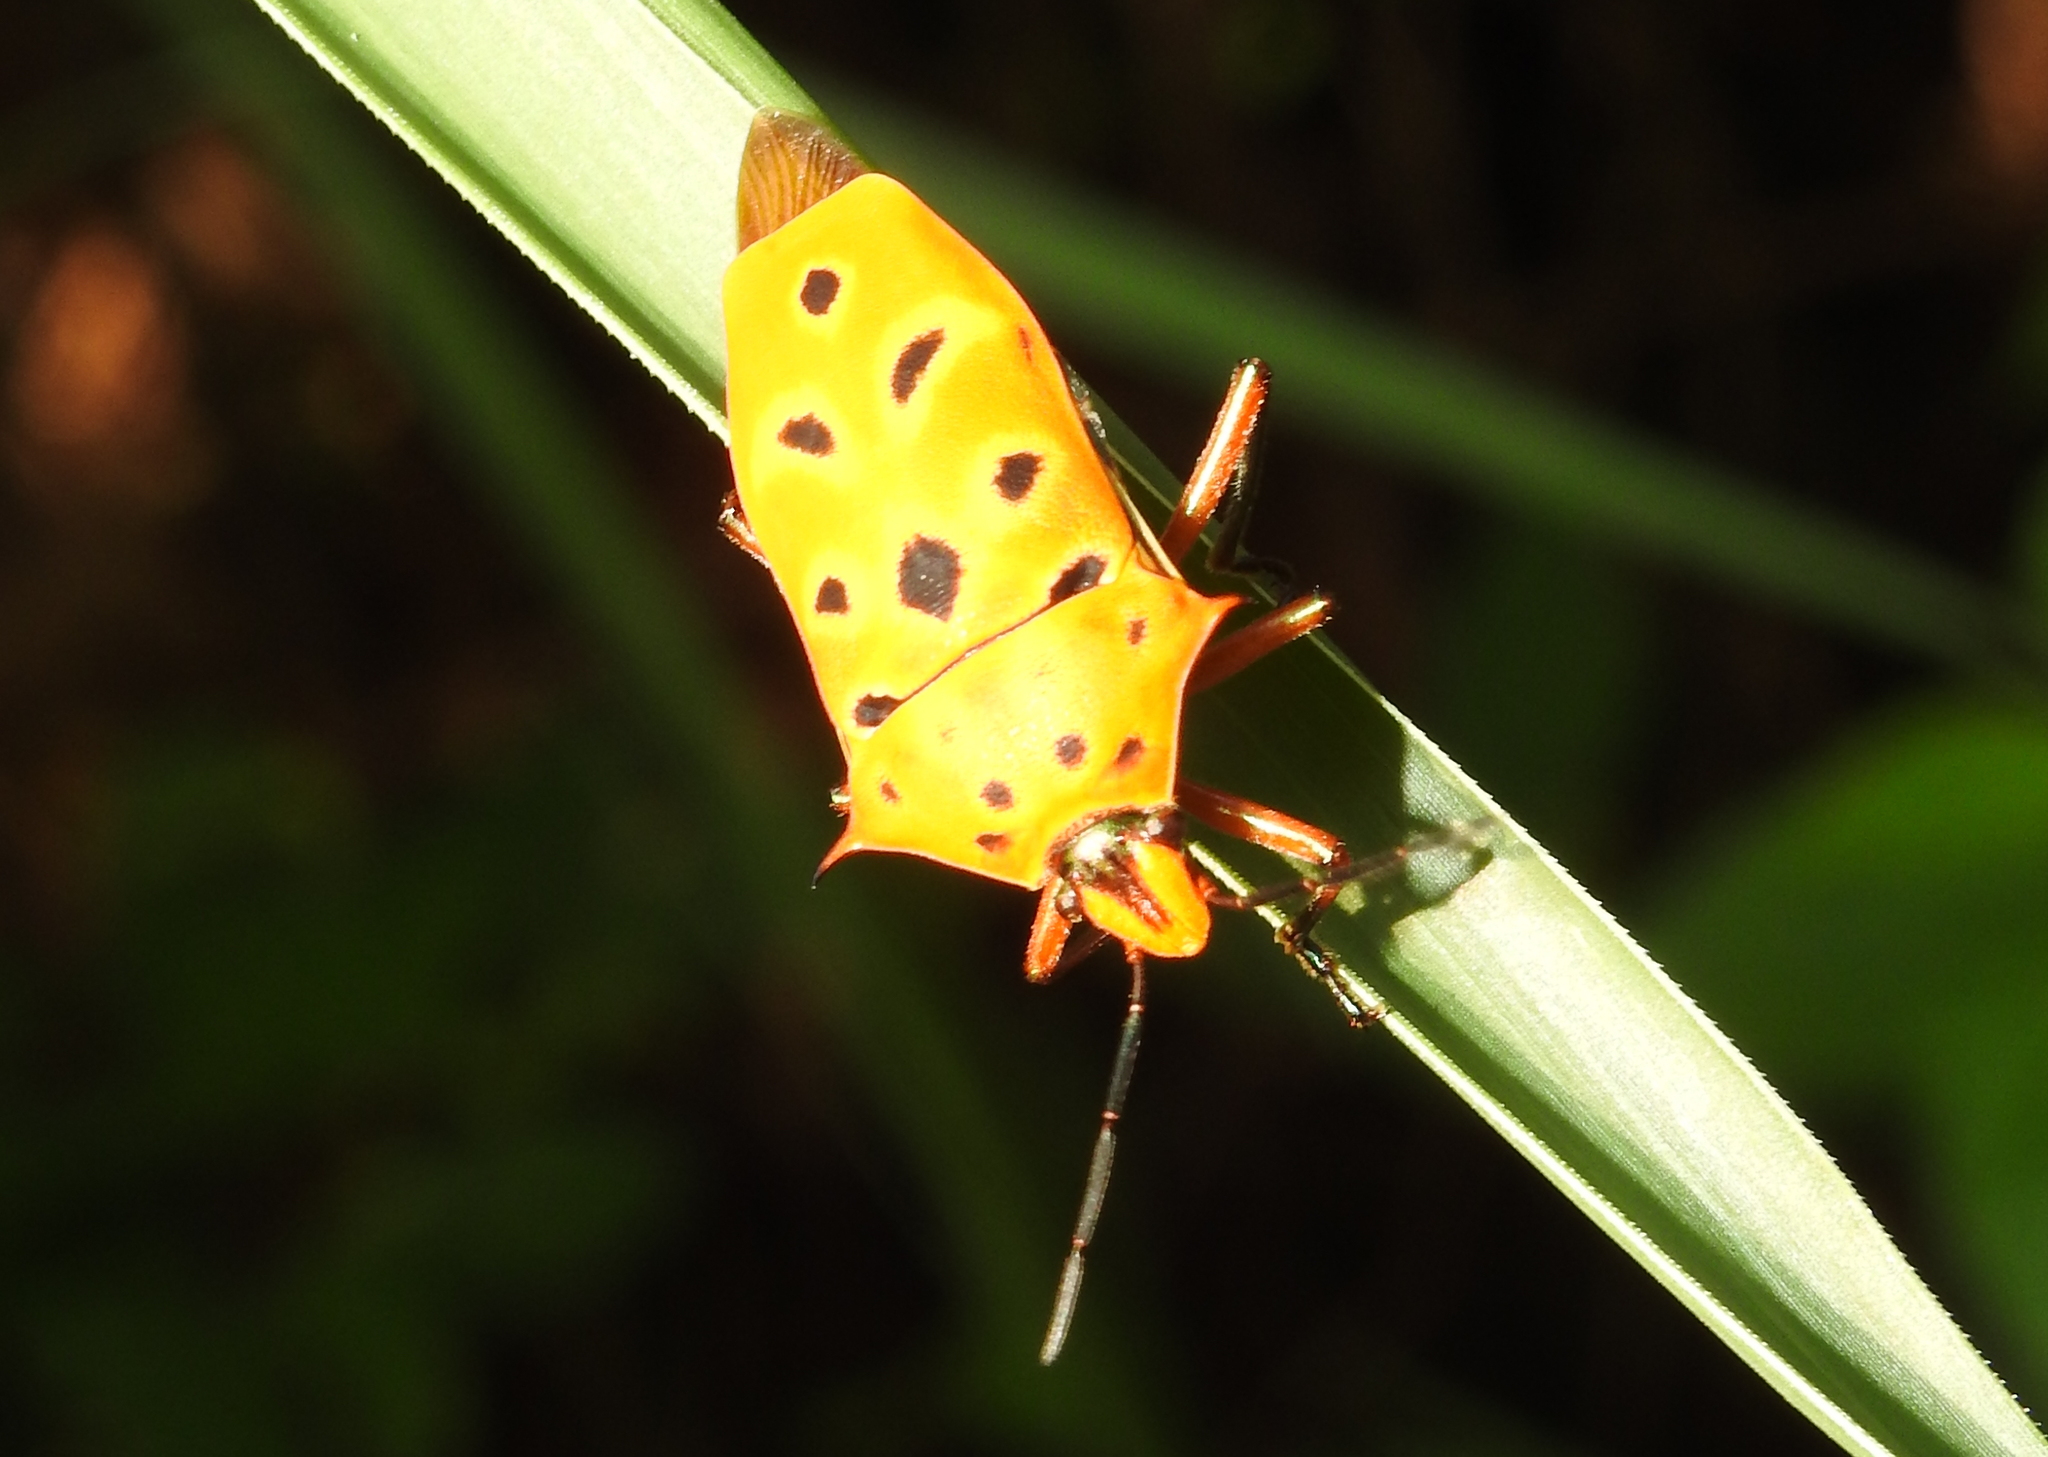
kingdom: Animalia
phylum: Arthropoda
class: Insecta
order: Hemiptera
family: Scutelleridae
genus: Cantao
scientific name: Cantao ocellatus
